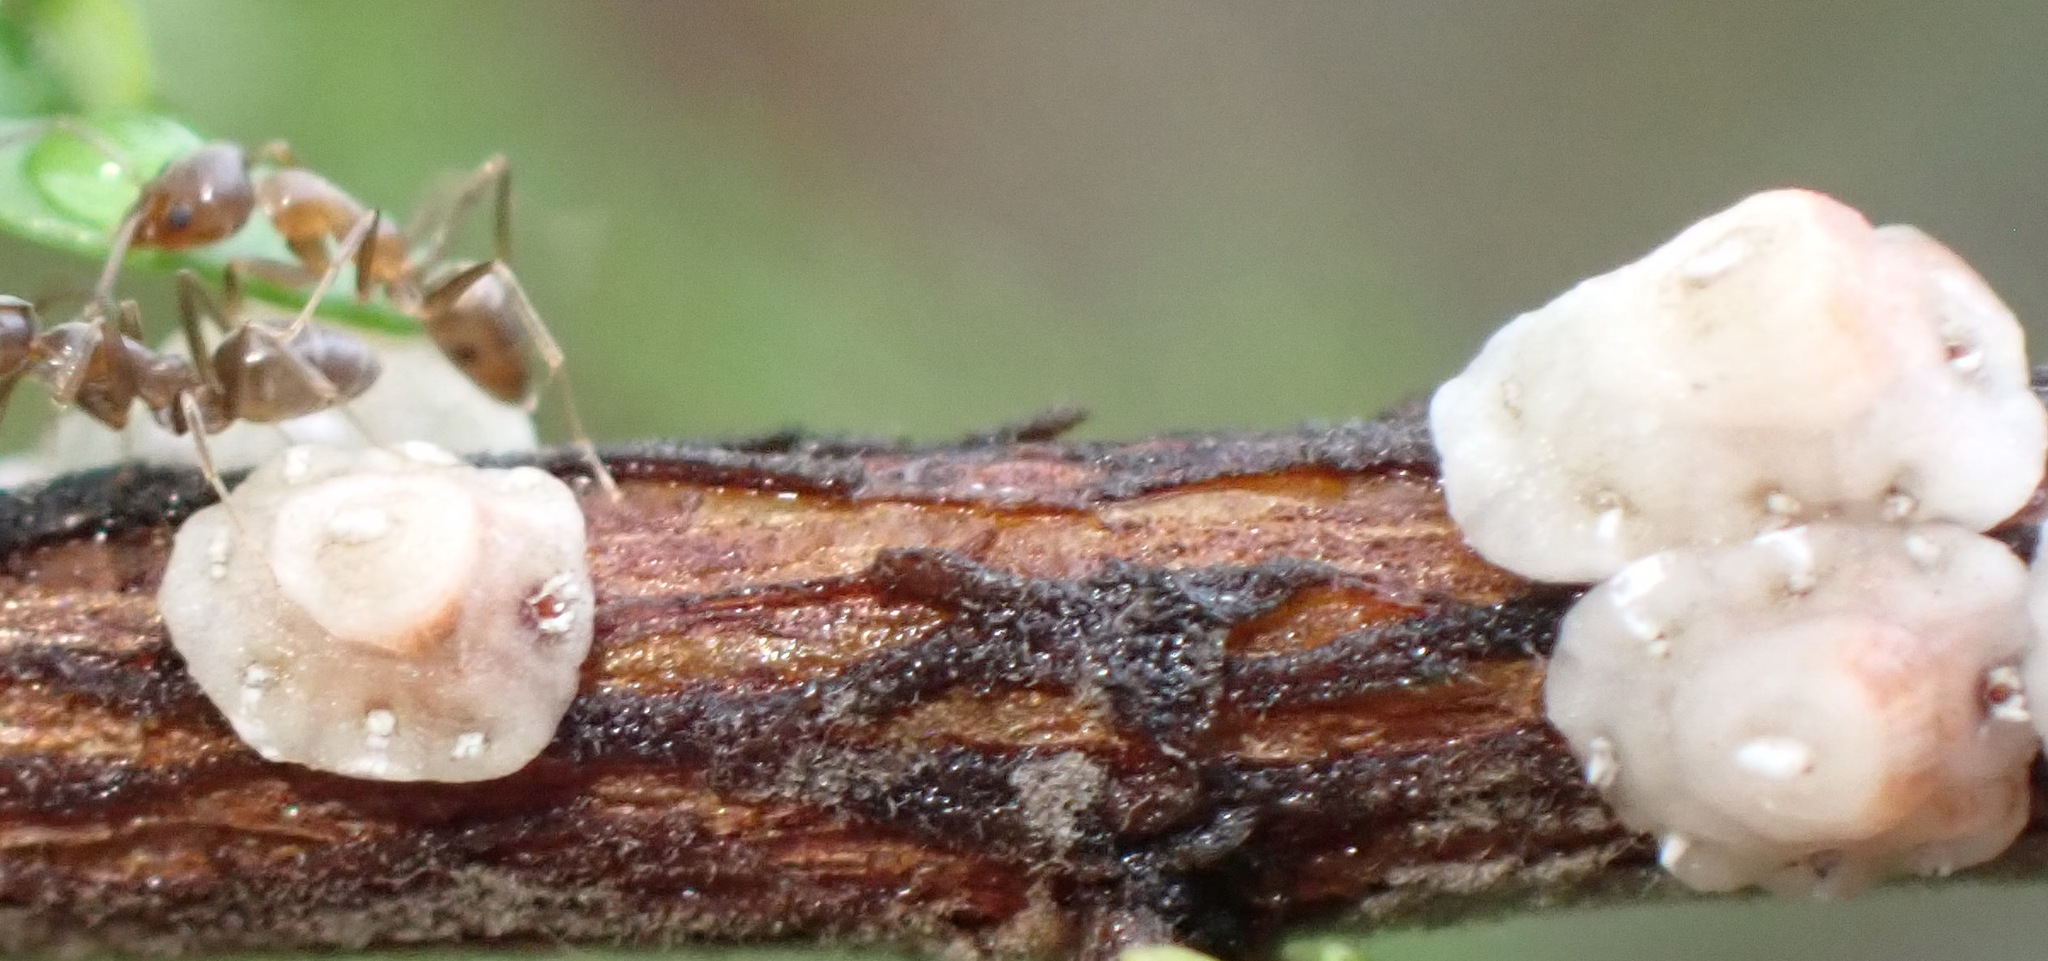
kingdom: Animalia
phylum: Arthropoda
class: Insecta
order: Hemiptera
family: Coccidae
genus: Ceroplastes
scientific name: Ceroplastes destructor
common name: Indian wax scale
